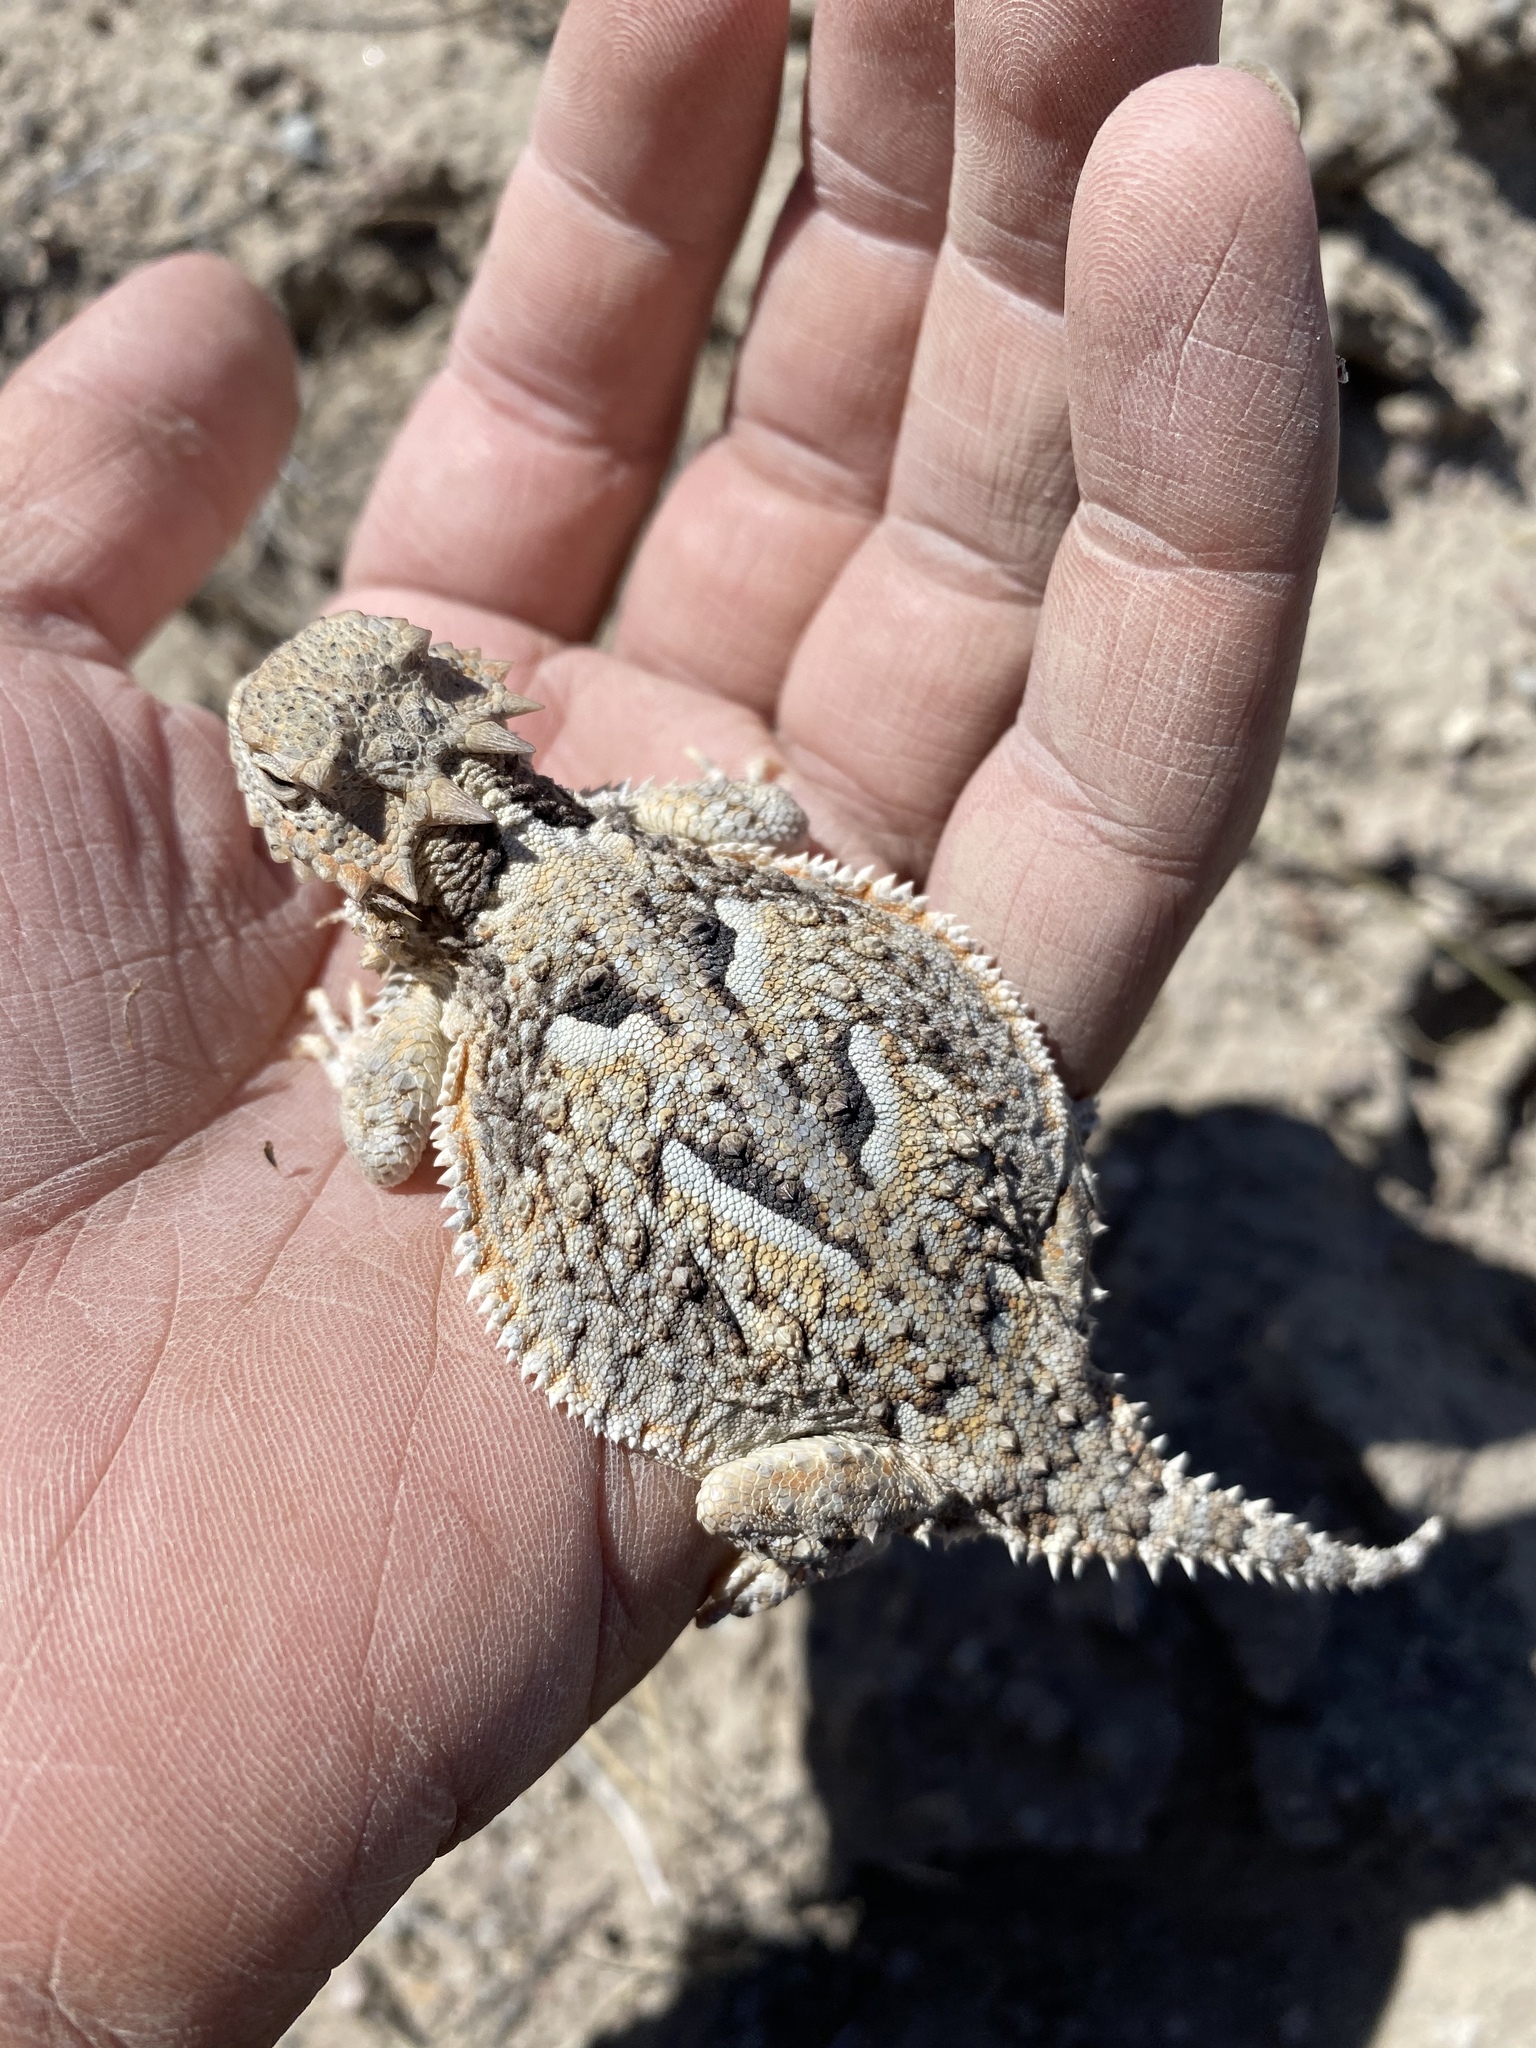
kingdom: Animalia
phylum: Chordata
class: Squamata
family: Phrynosomatidae
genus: Phrynosoma
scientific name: Phrynosoma platyrhinos
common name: Desert horned lizard
